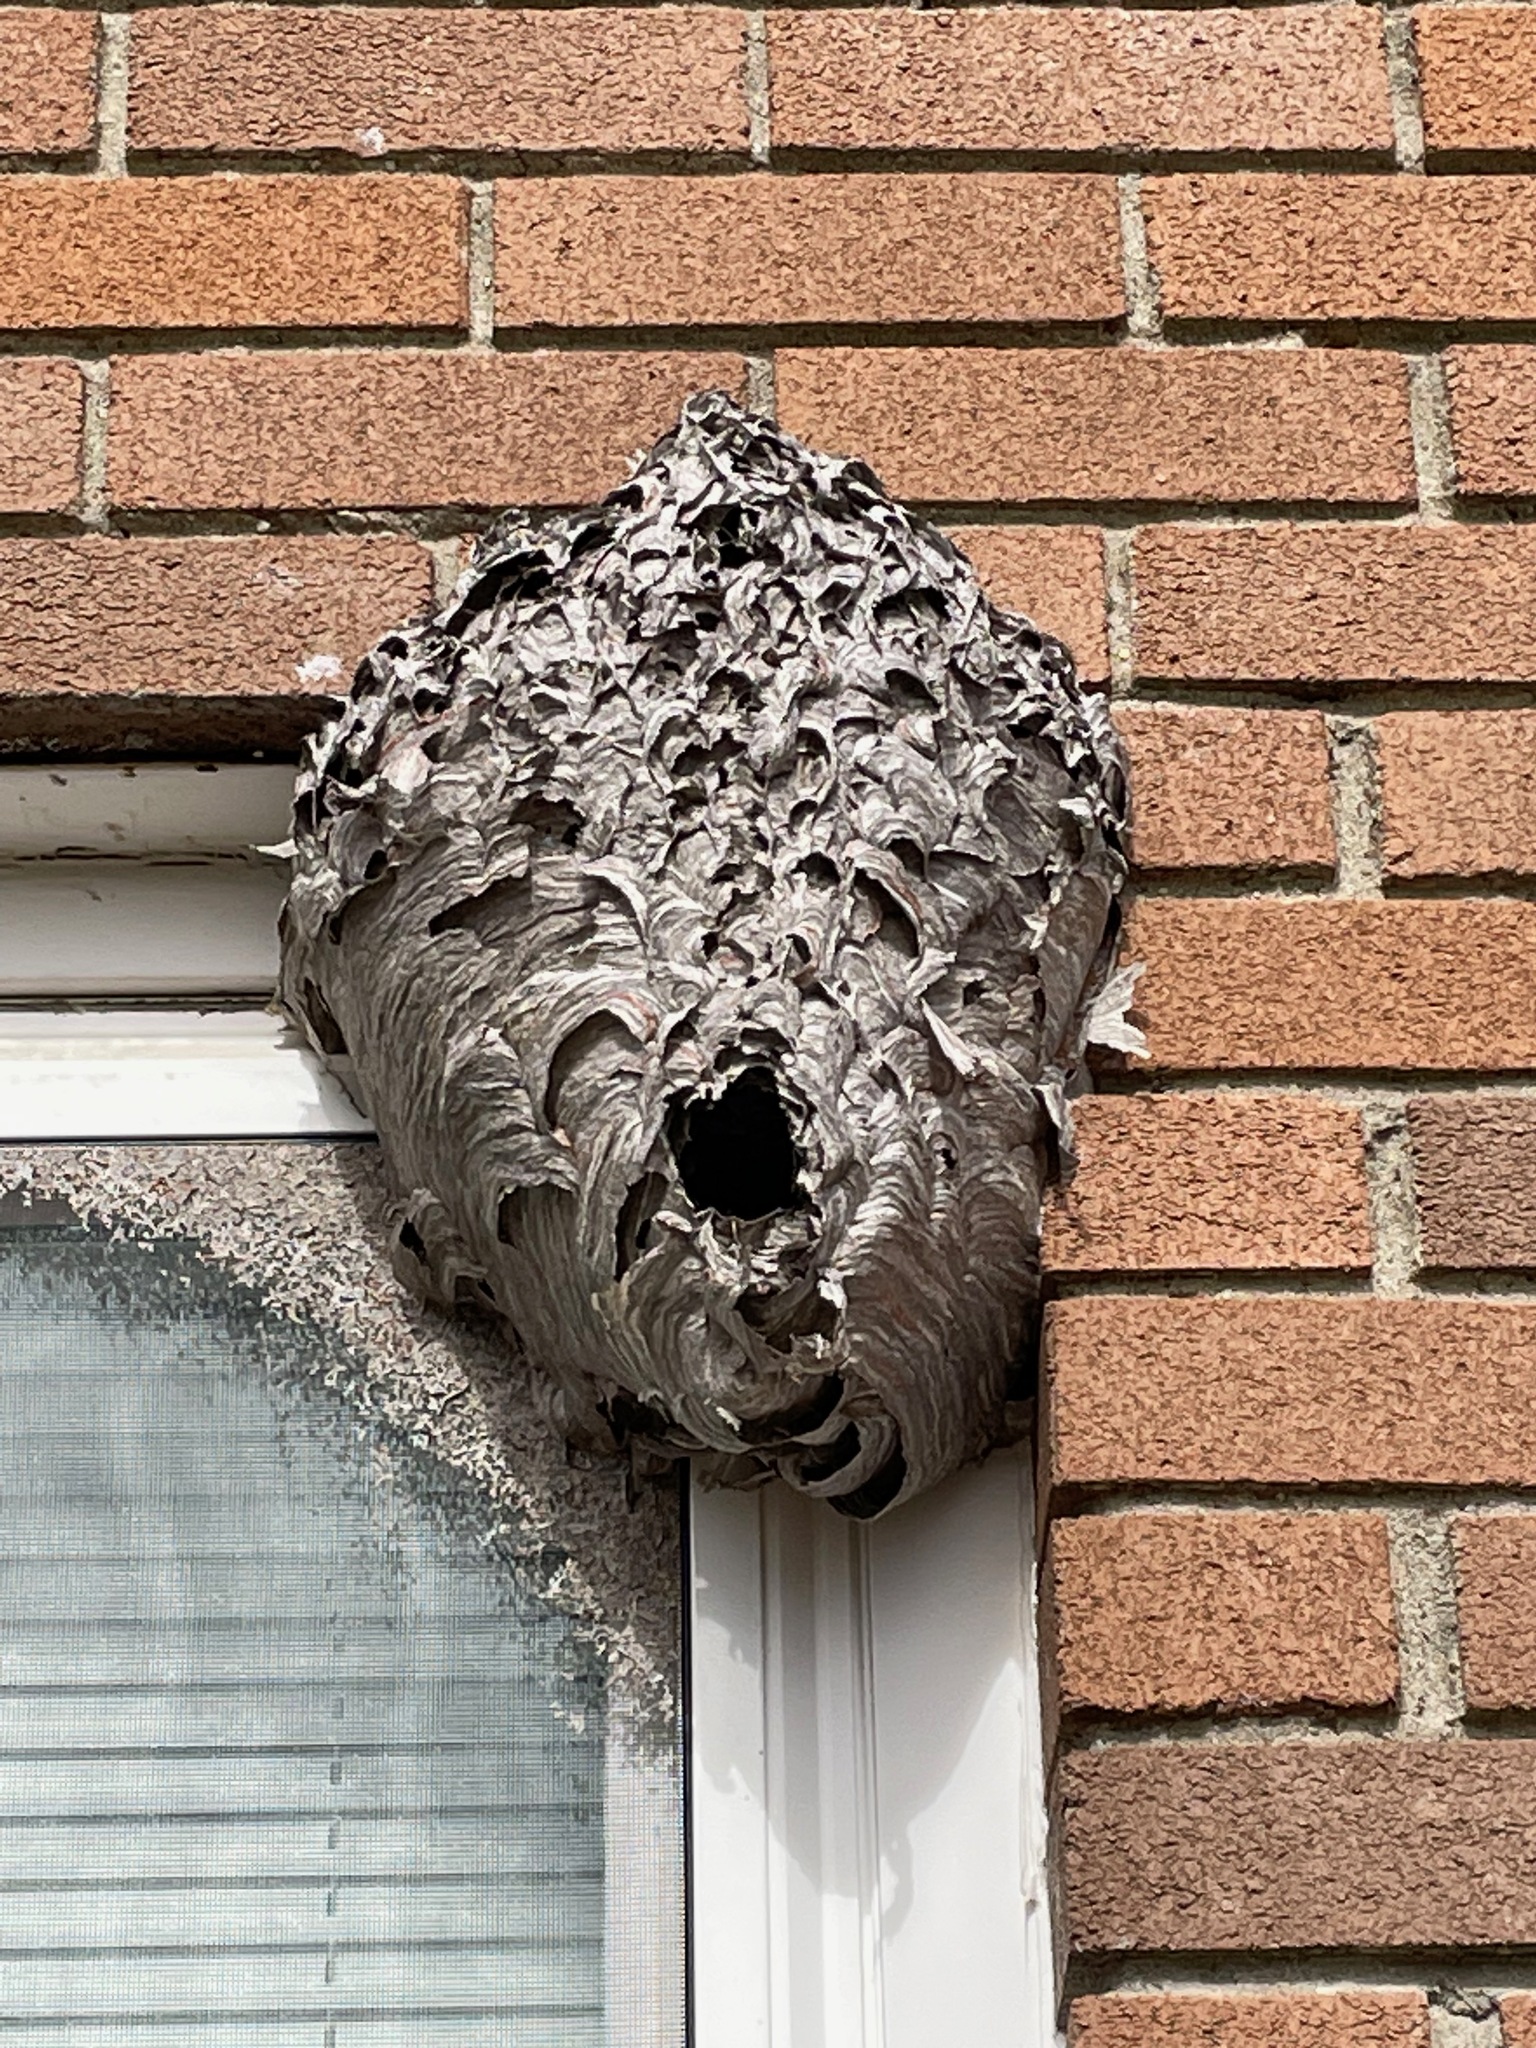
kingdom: Animalia
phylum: Arthropoda
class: Insecta
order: Hymenoptera
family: Vespidae
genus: Dolichovespula
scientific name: Dolichovespula maculata
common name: Bald-faced hornet
